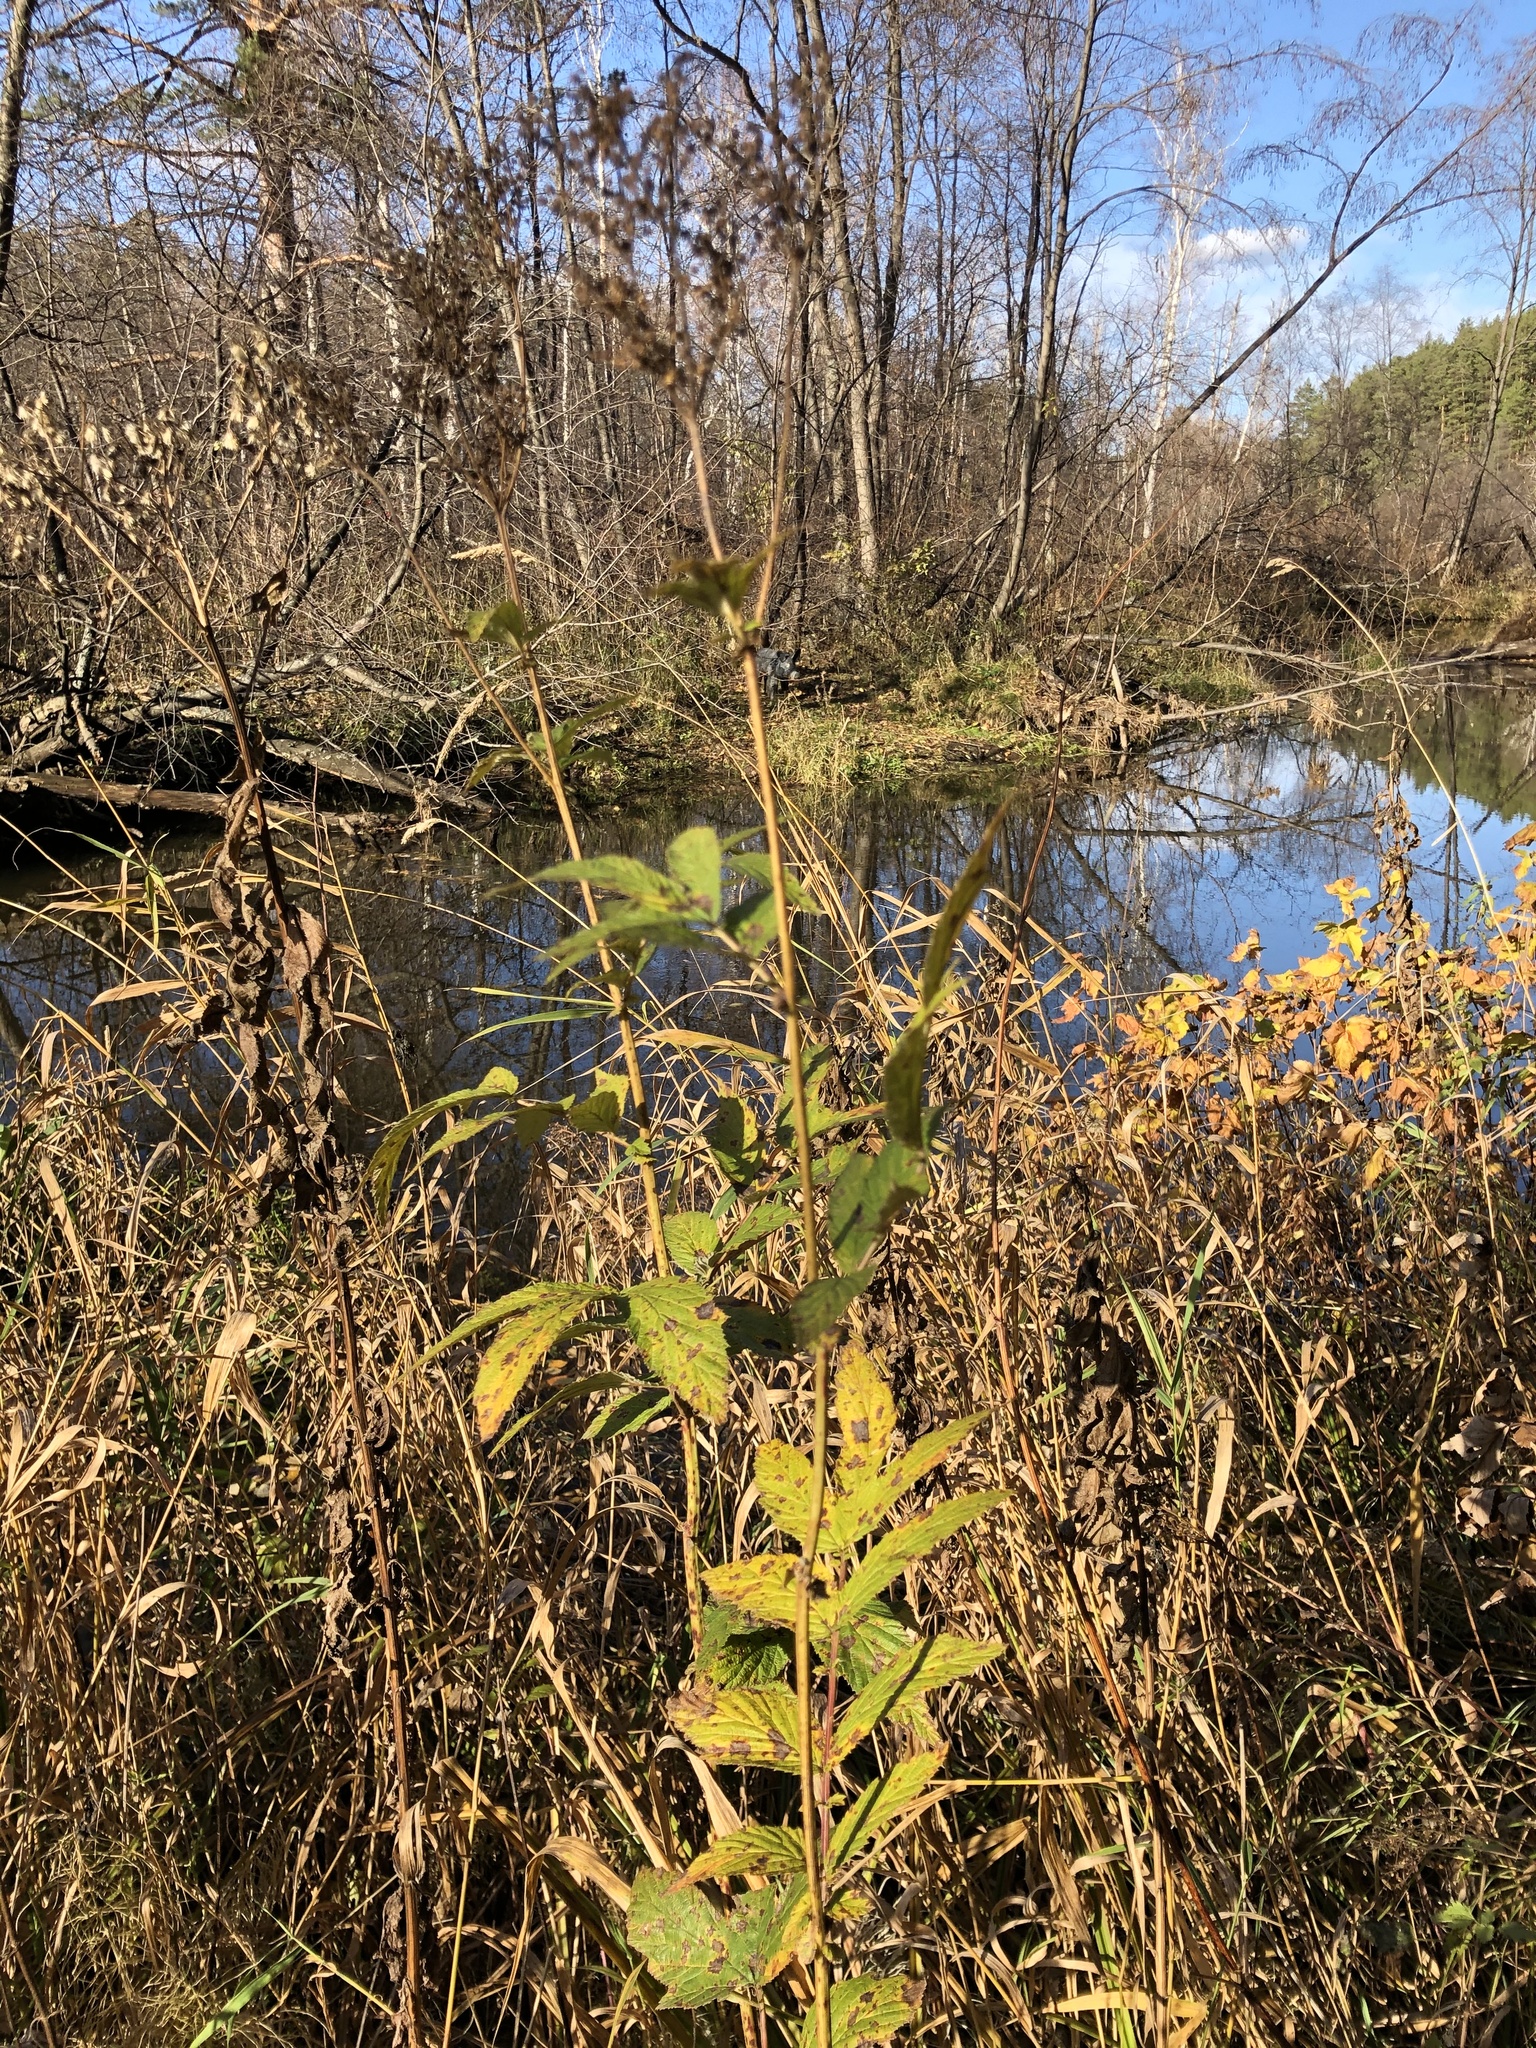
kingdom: Plantae
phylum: Tracheophyta
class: Magnoliopsida
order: Rosales
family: Rosaceae
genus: Filipendula
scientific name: Filipendula ulmaria
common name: Meadowsweet
